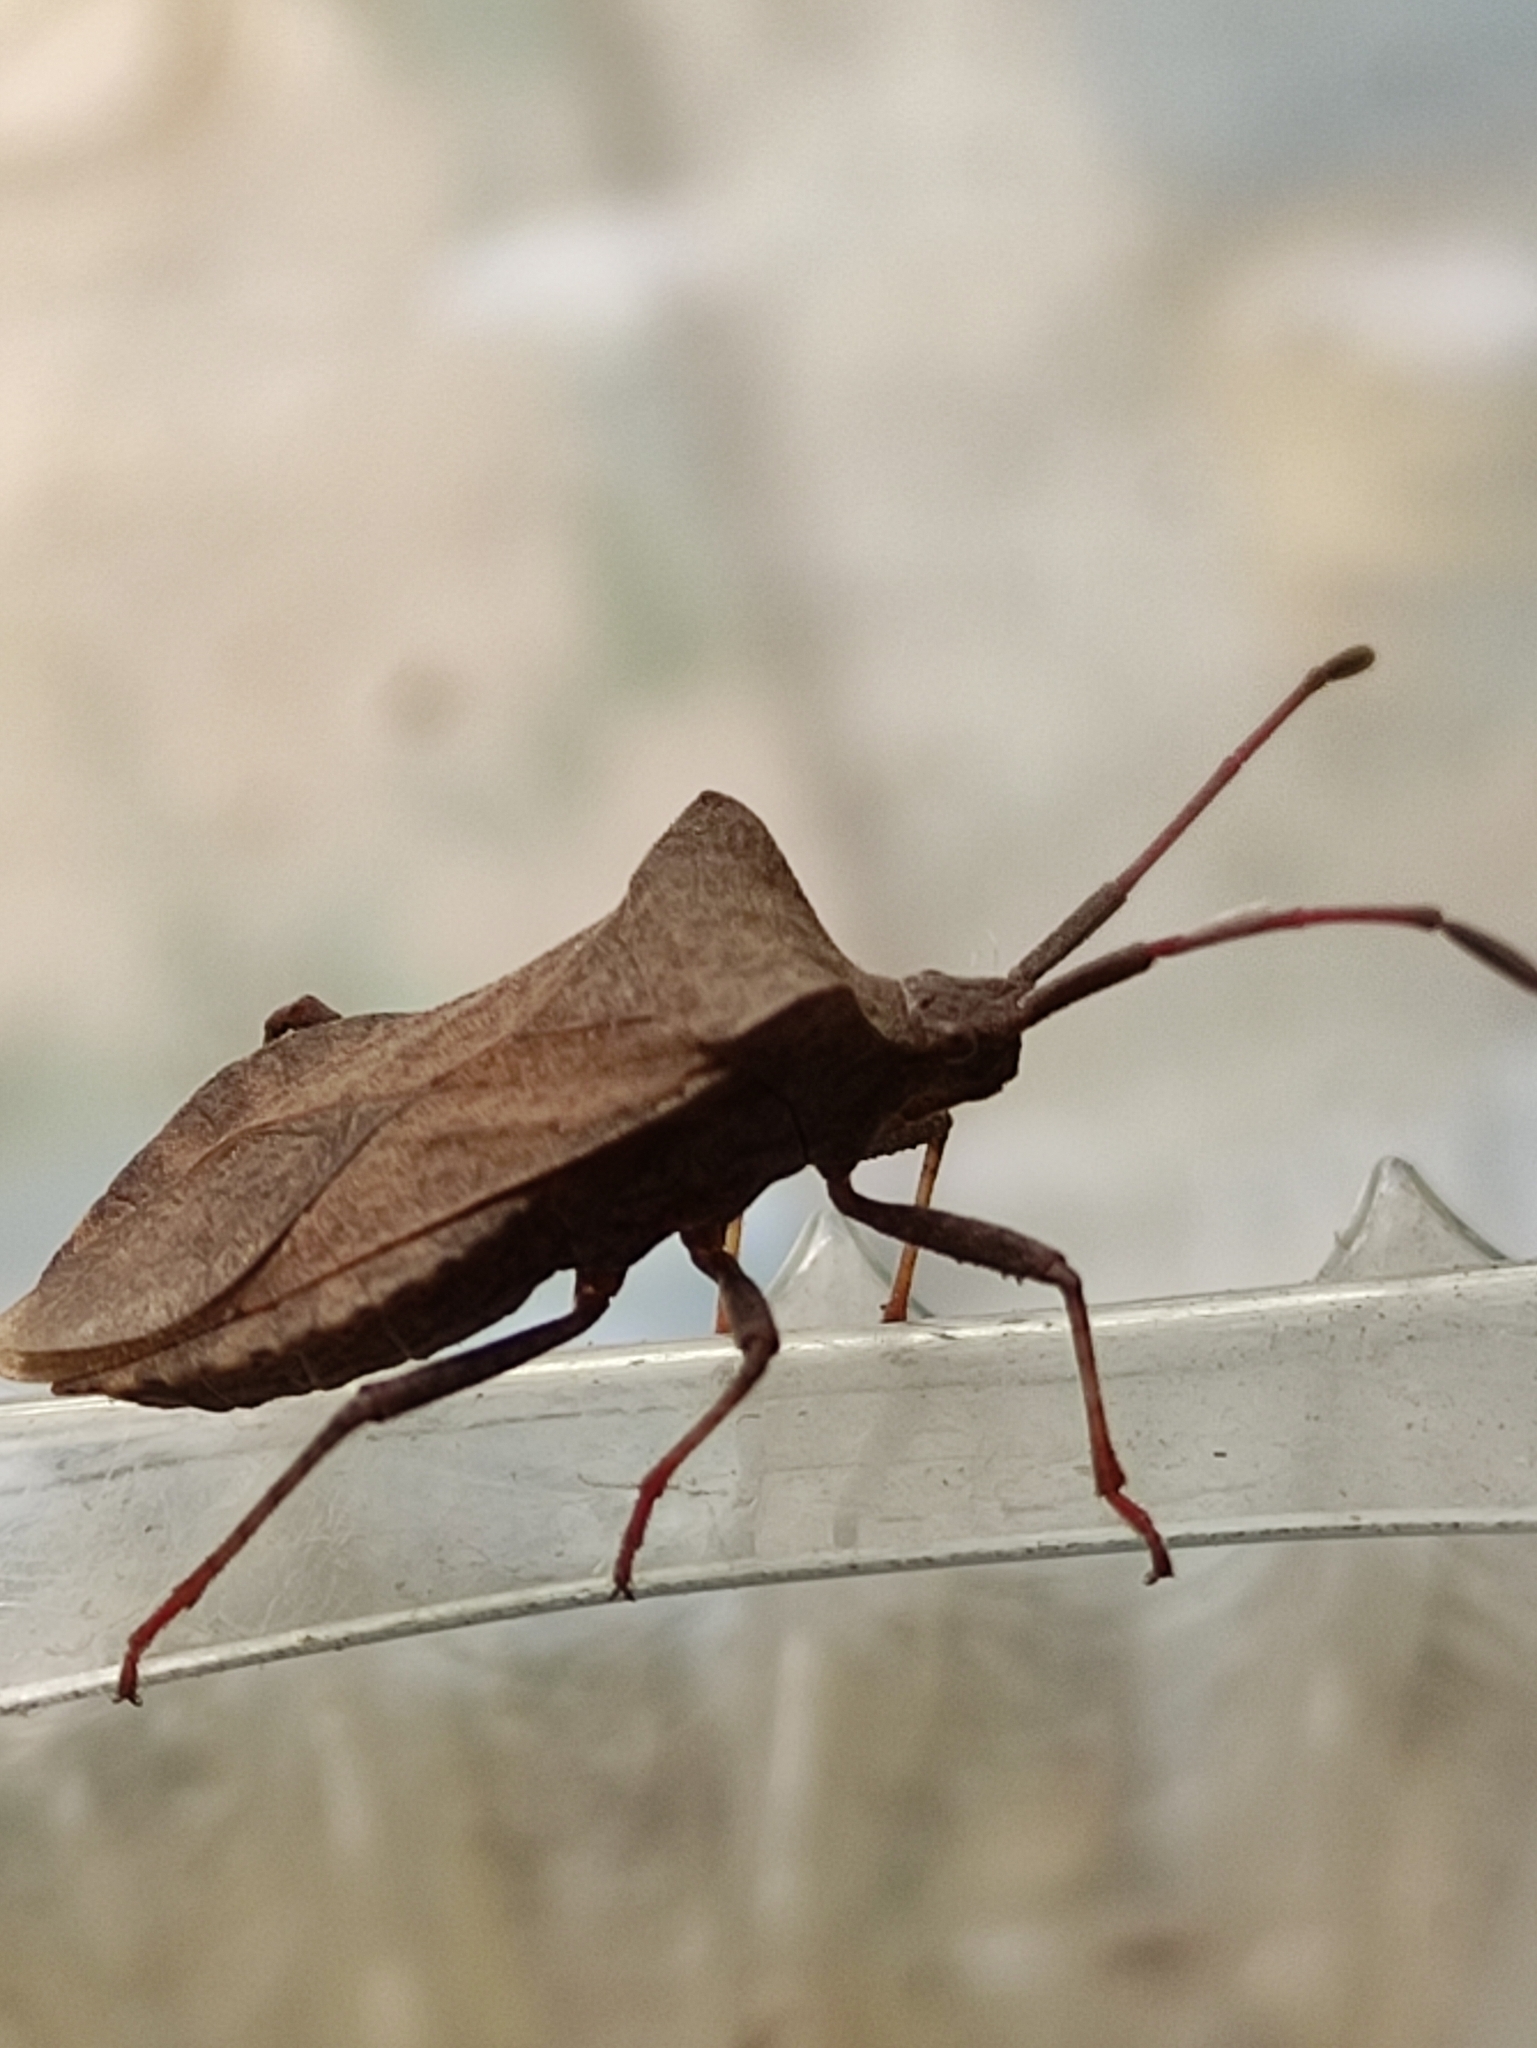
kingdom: Animalia
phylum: Arthropoda
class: Insecta
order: Hemiptera
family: Coreidae
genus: Coreus
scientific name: Coreus marginatus
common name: Dock bug
